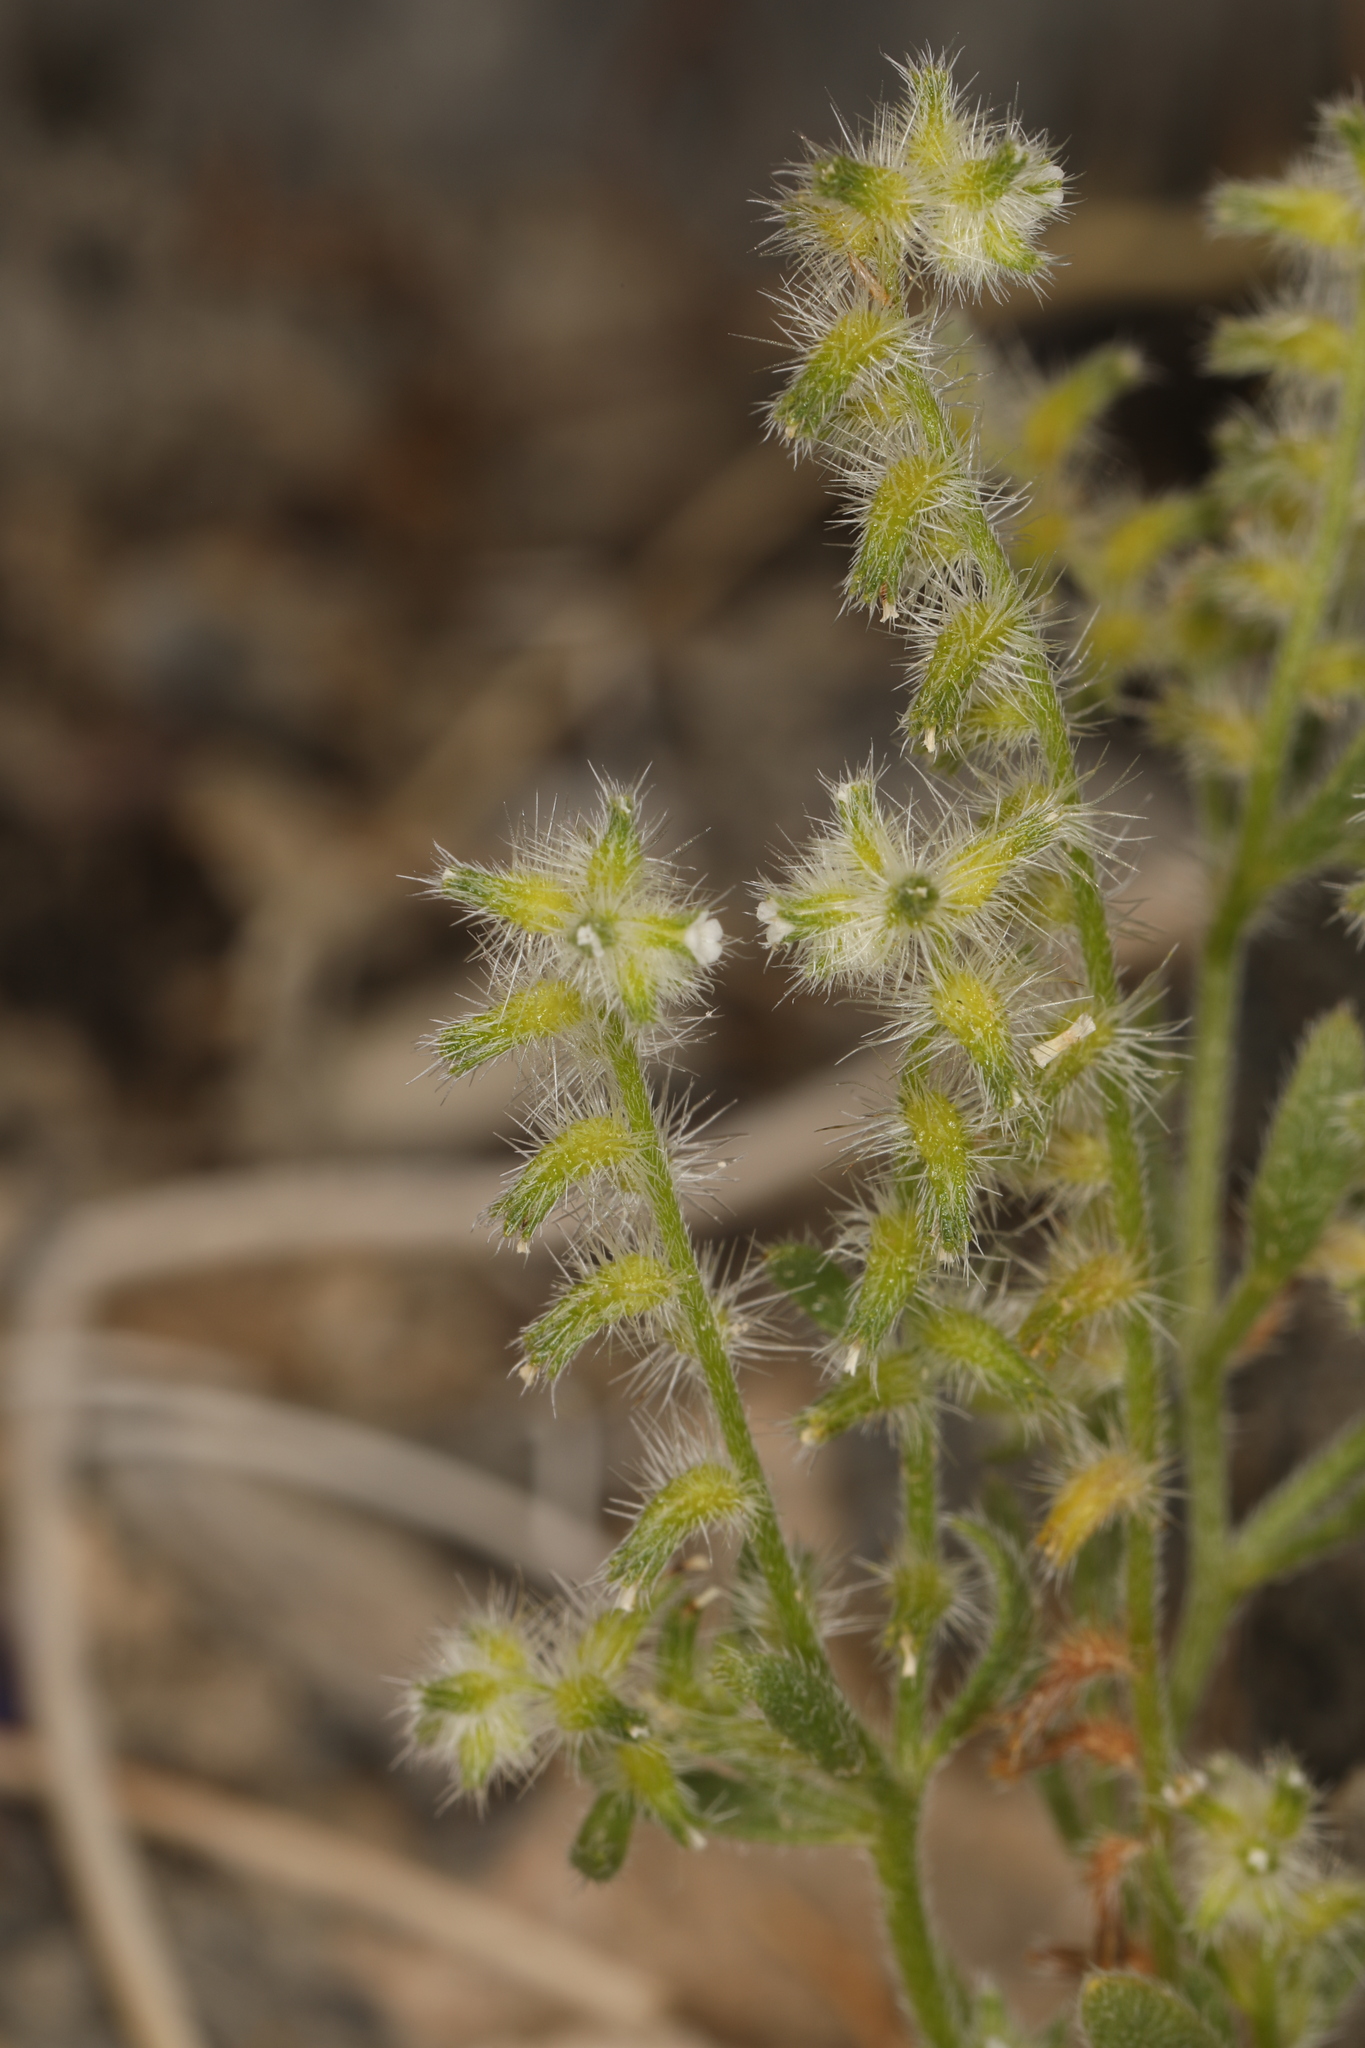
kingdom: Plantae
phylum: Tracheophyta
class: Magnoliopsida
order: Boraginales
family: Boraginaceae
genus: Cryptantha
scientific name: Cryptantha recurvata
